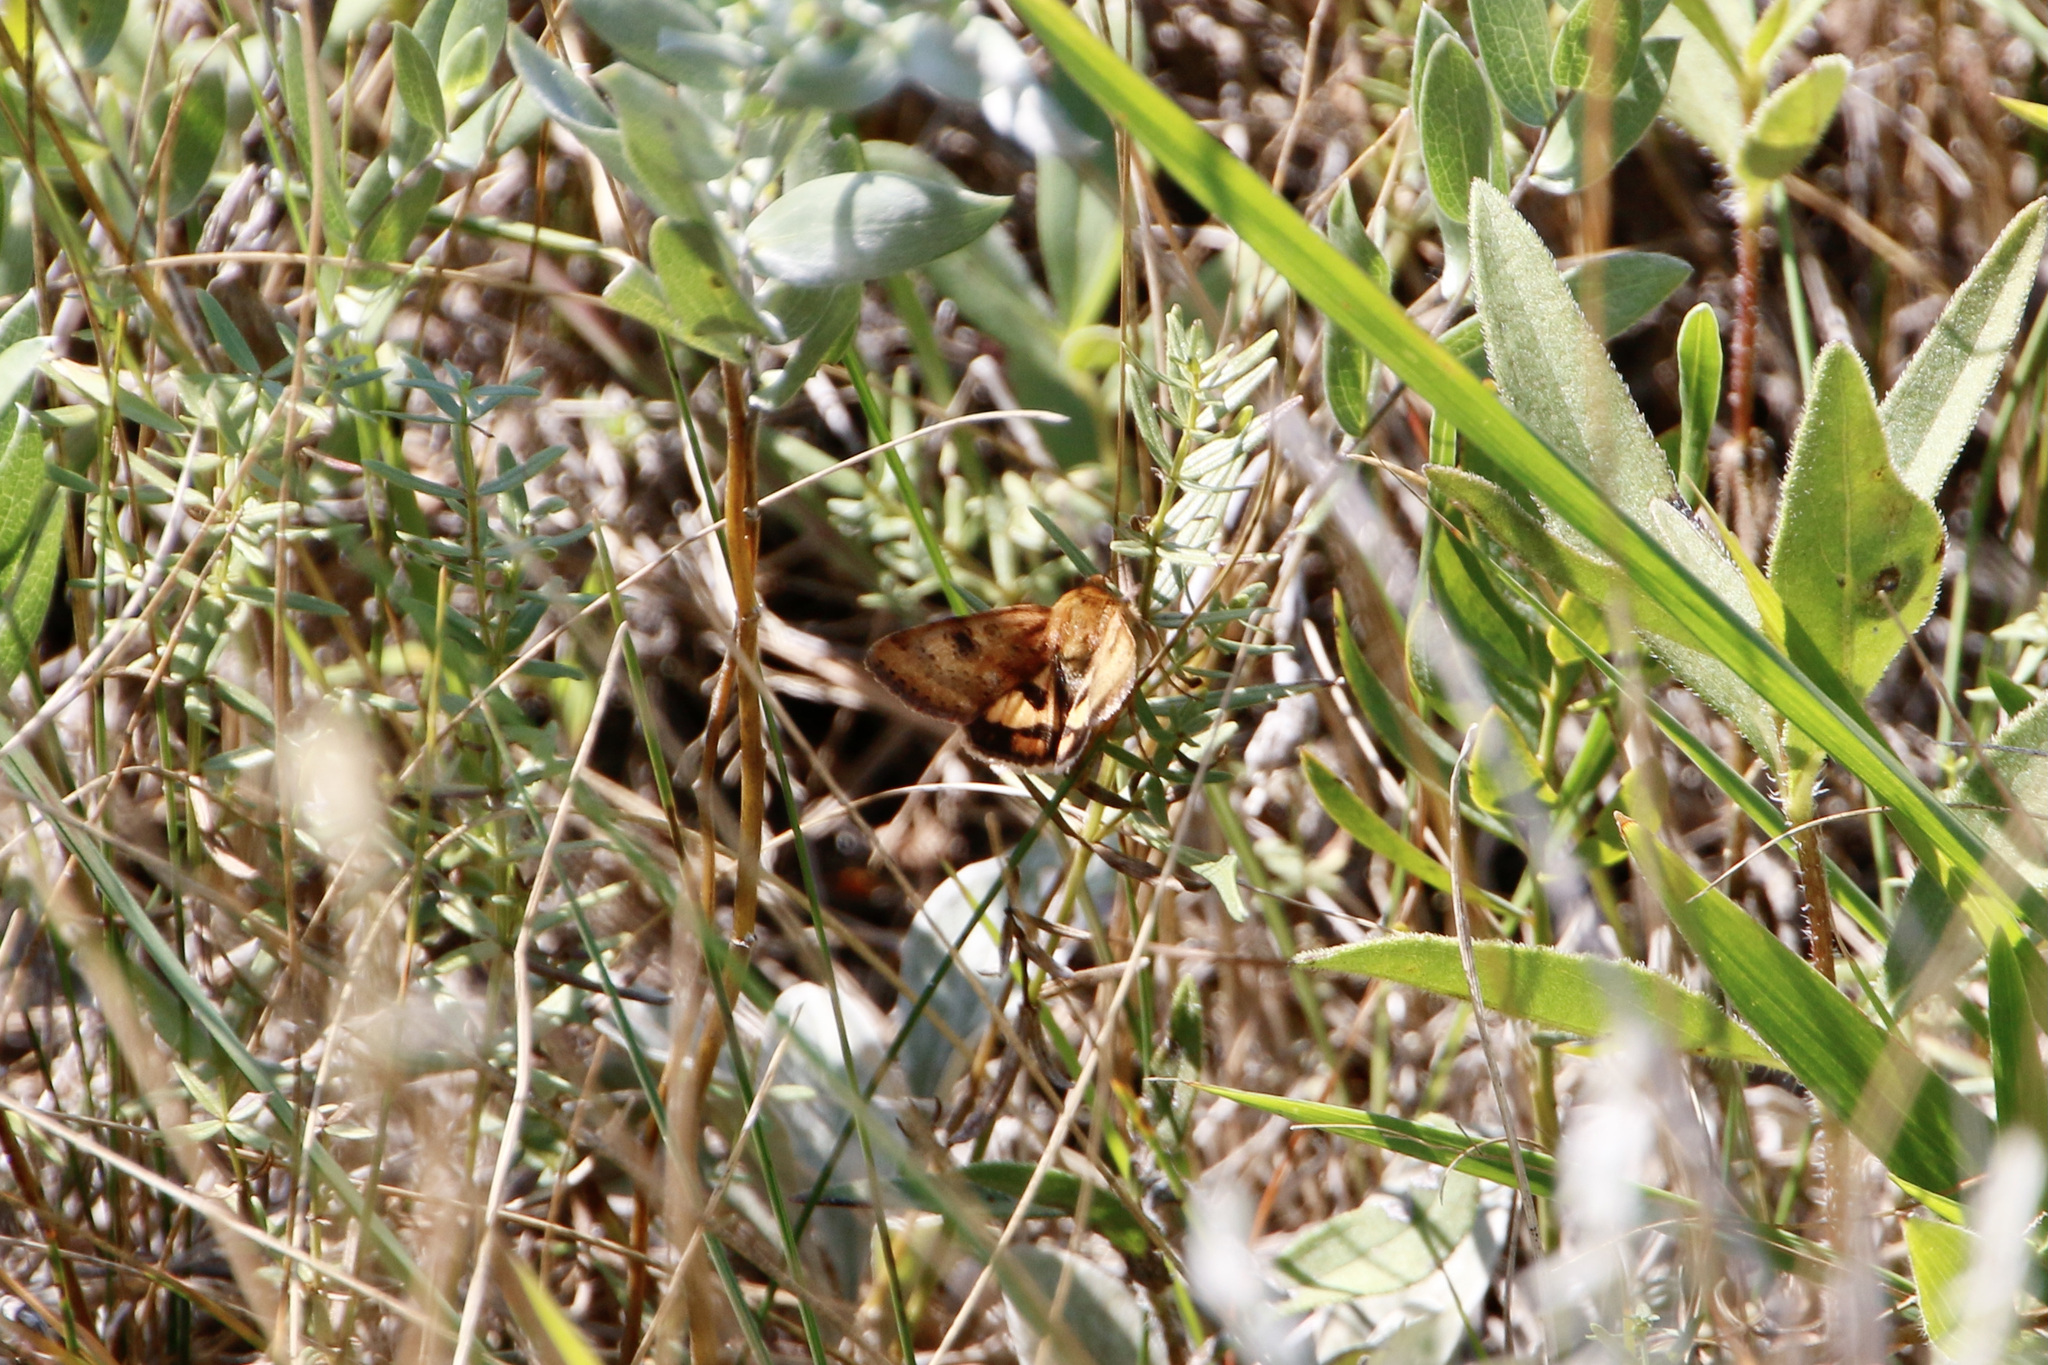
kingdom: Animalia
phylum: Arthropoda
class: Insecta
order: Lepidoptera
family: Noctuidae
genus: Heliothis
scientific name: Heliothis acesias
